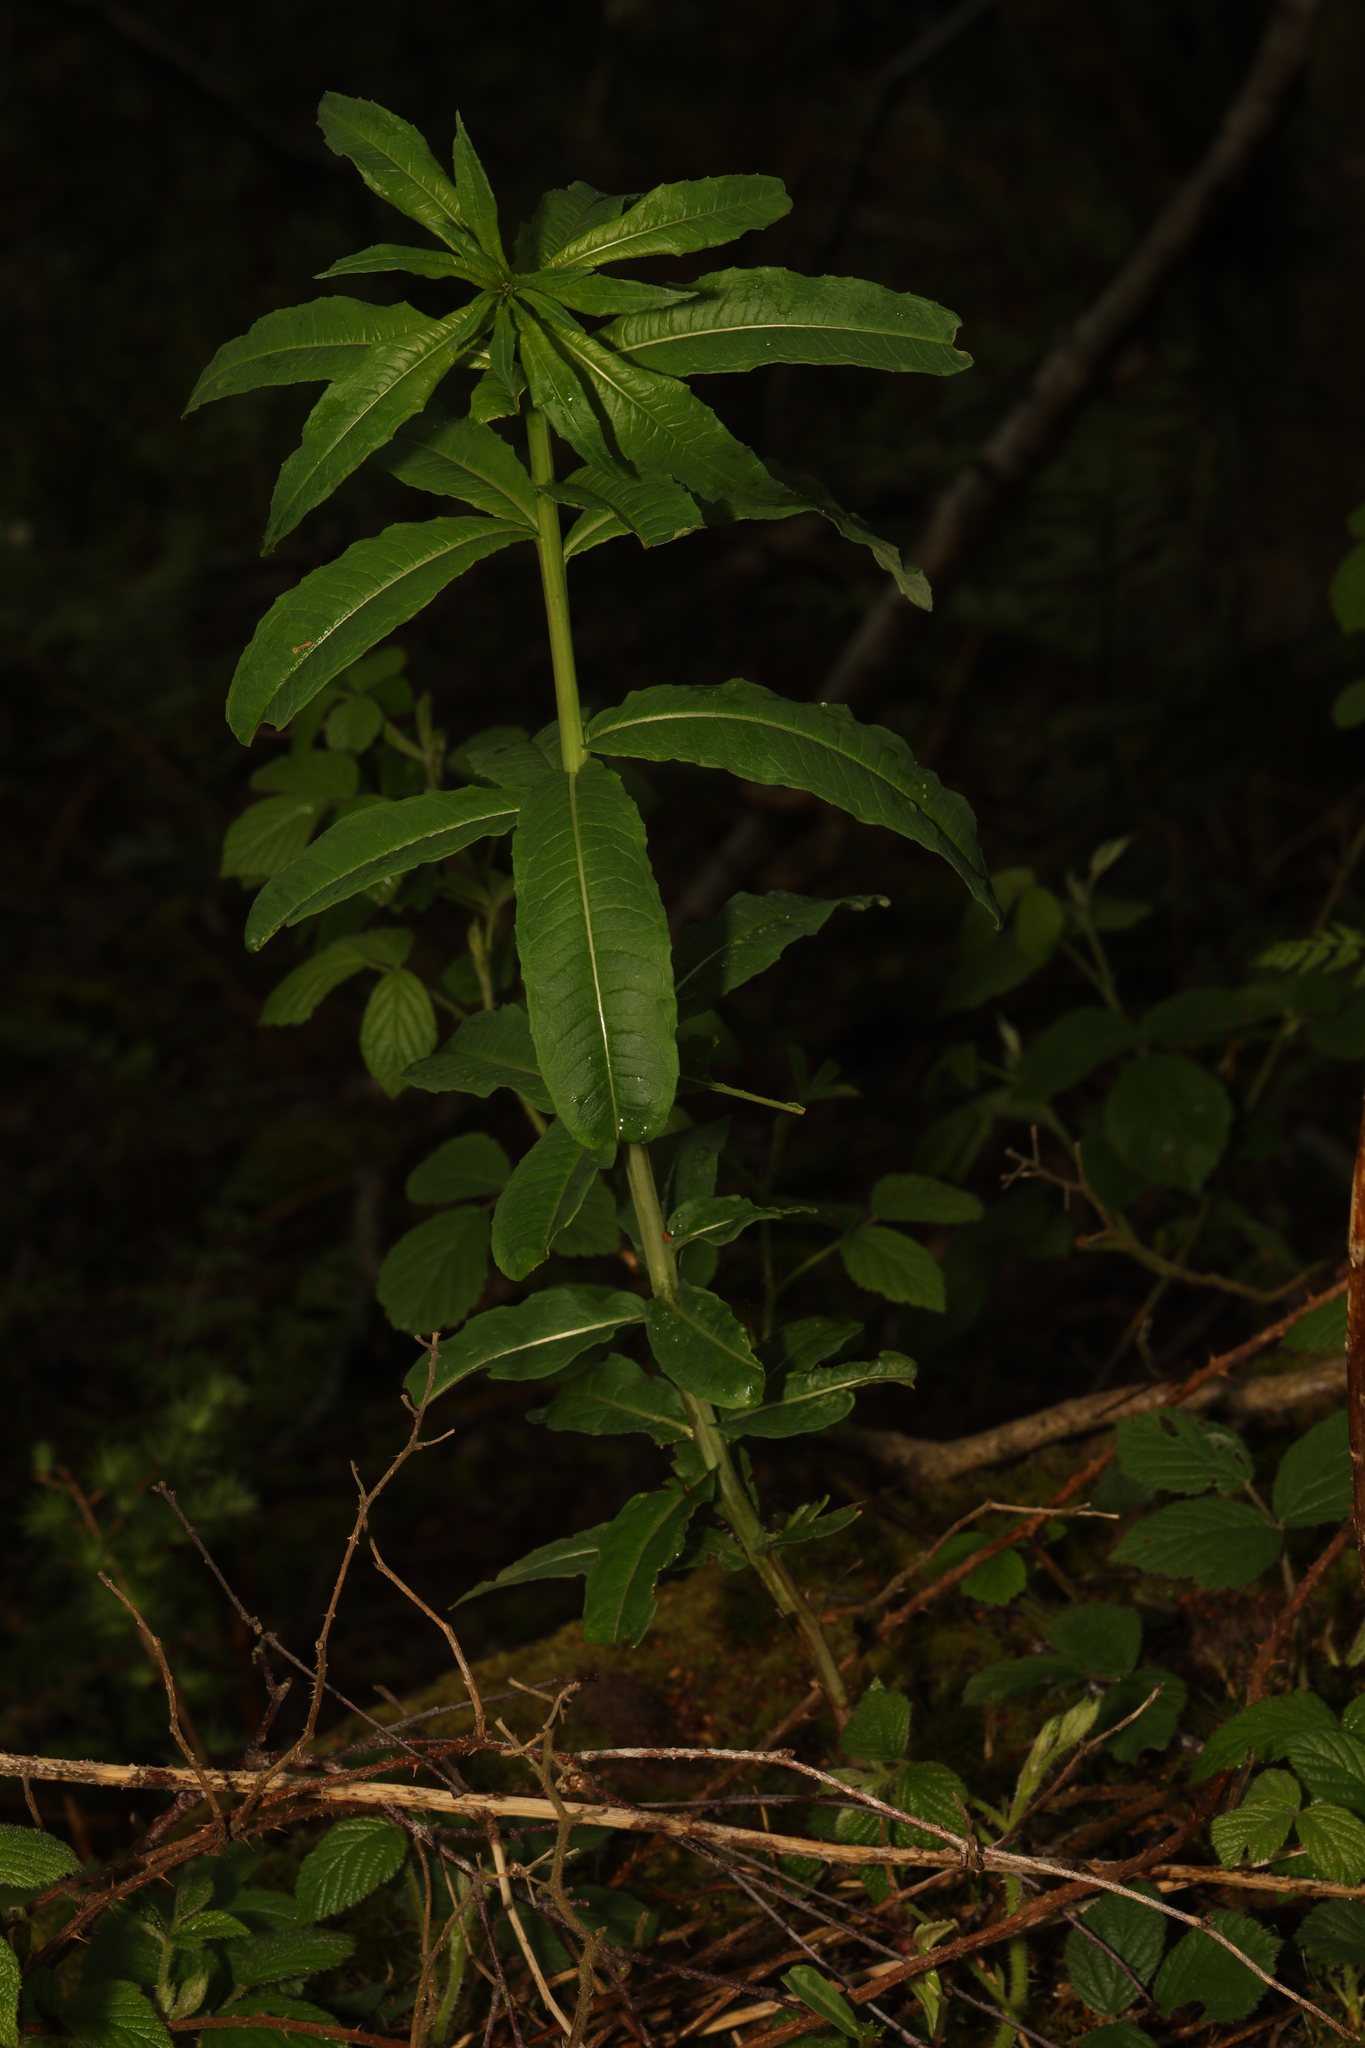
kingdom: Plantae
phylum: Tracheophyta
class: Magnoliopsida
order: Myrtales
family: Onagraceae
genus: Chamaenerion
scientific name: Chamaenerion angustifolium
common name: Fireweed
